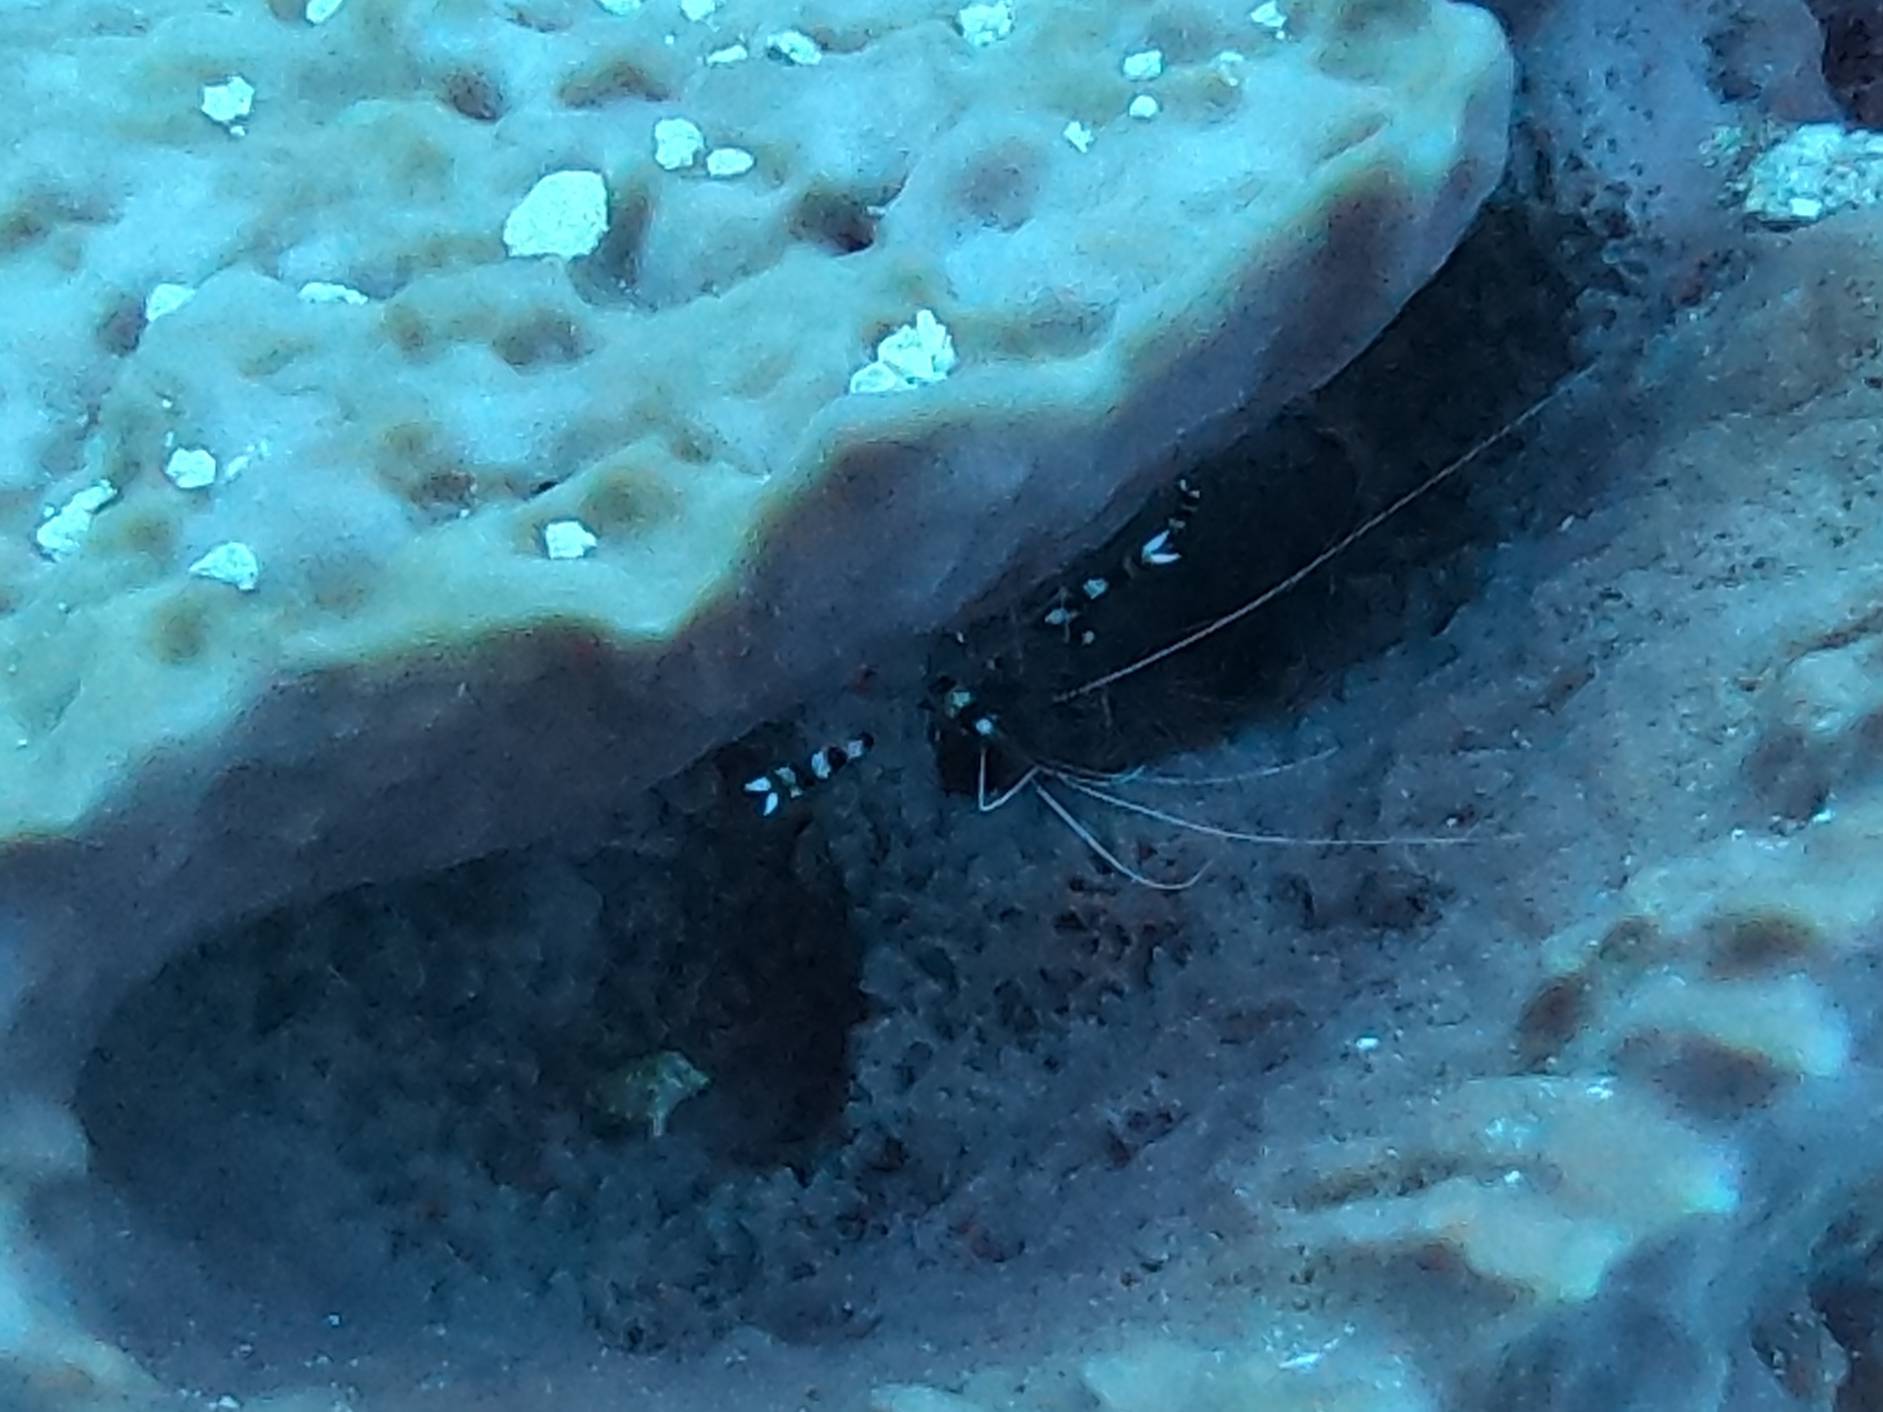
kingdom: Animalia
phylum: Arthropoda
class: Malacostraca
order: Decapoda
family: Stenopodidae
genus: Stenopus
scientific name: Stenopus hispidus
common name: Banded coral shrimp
